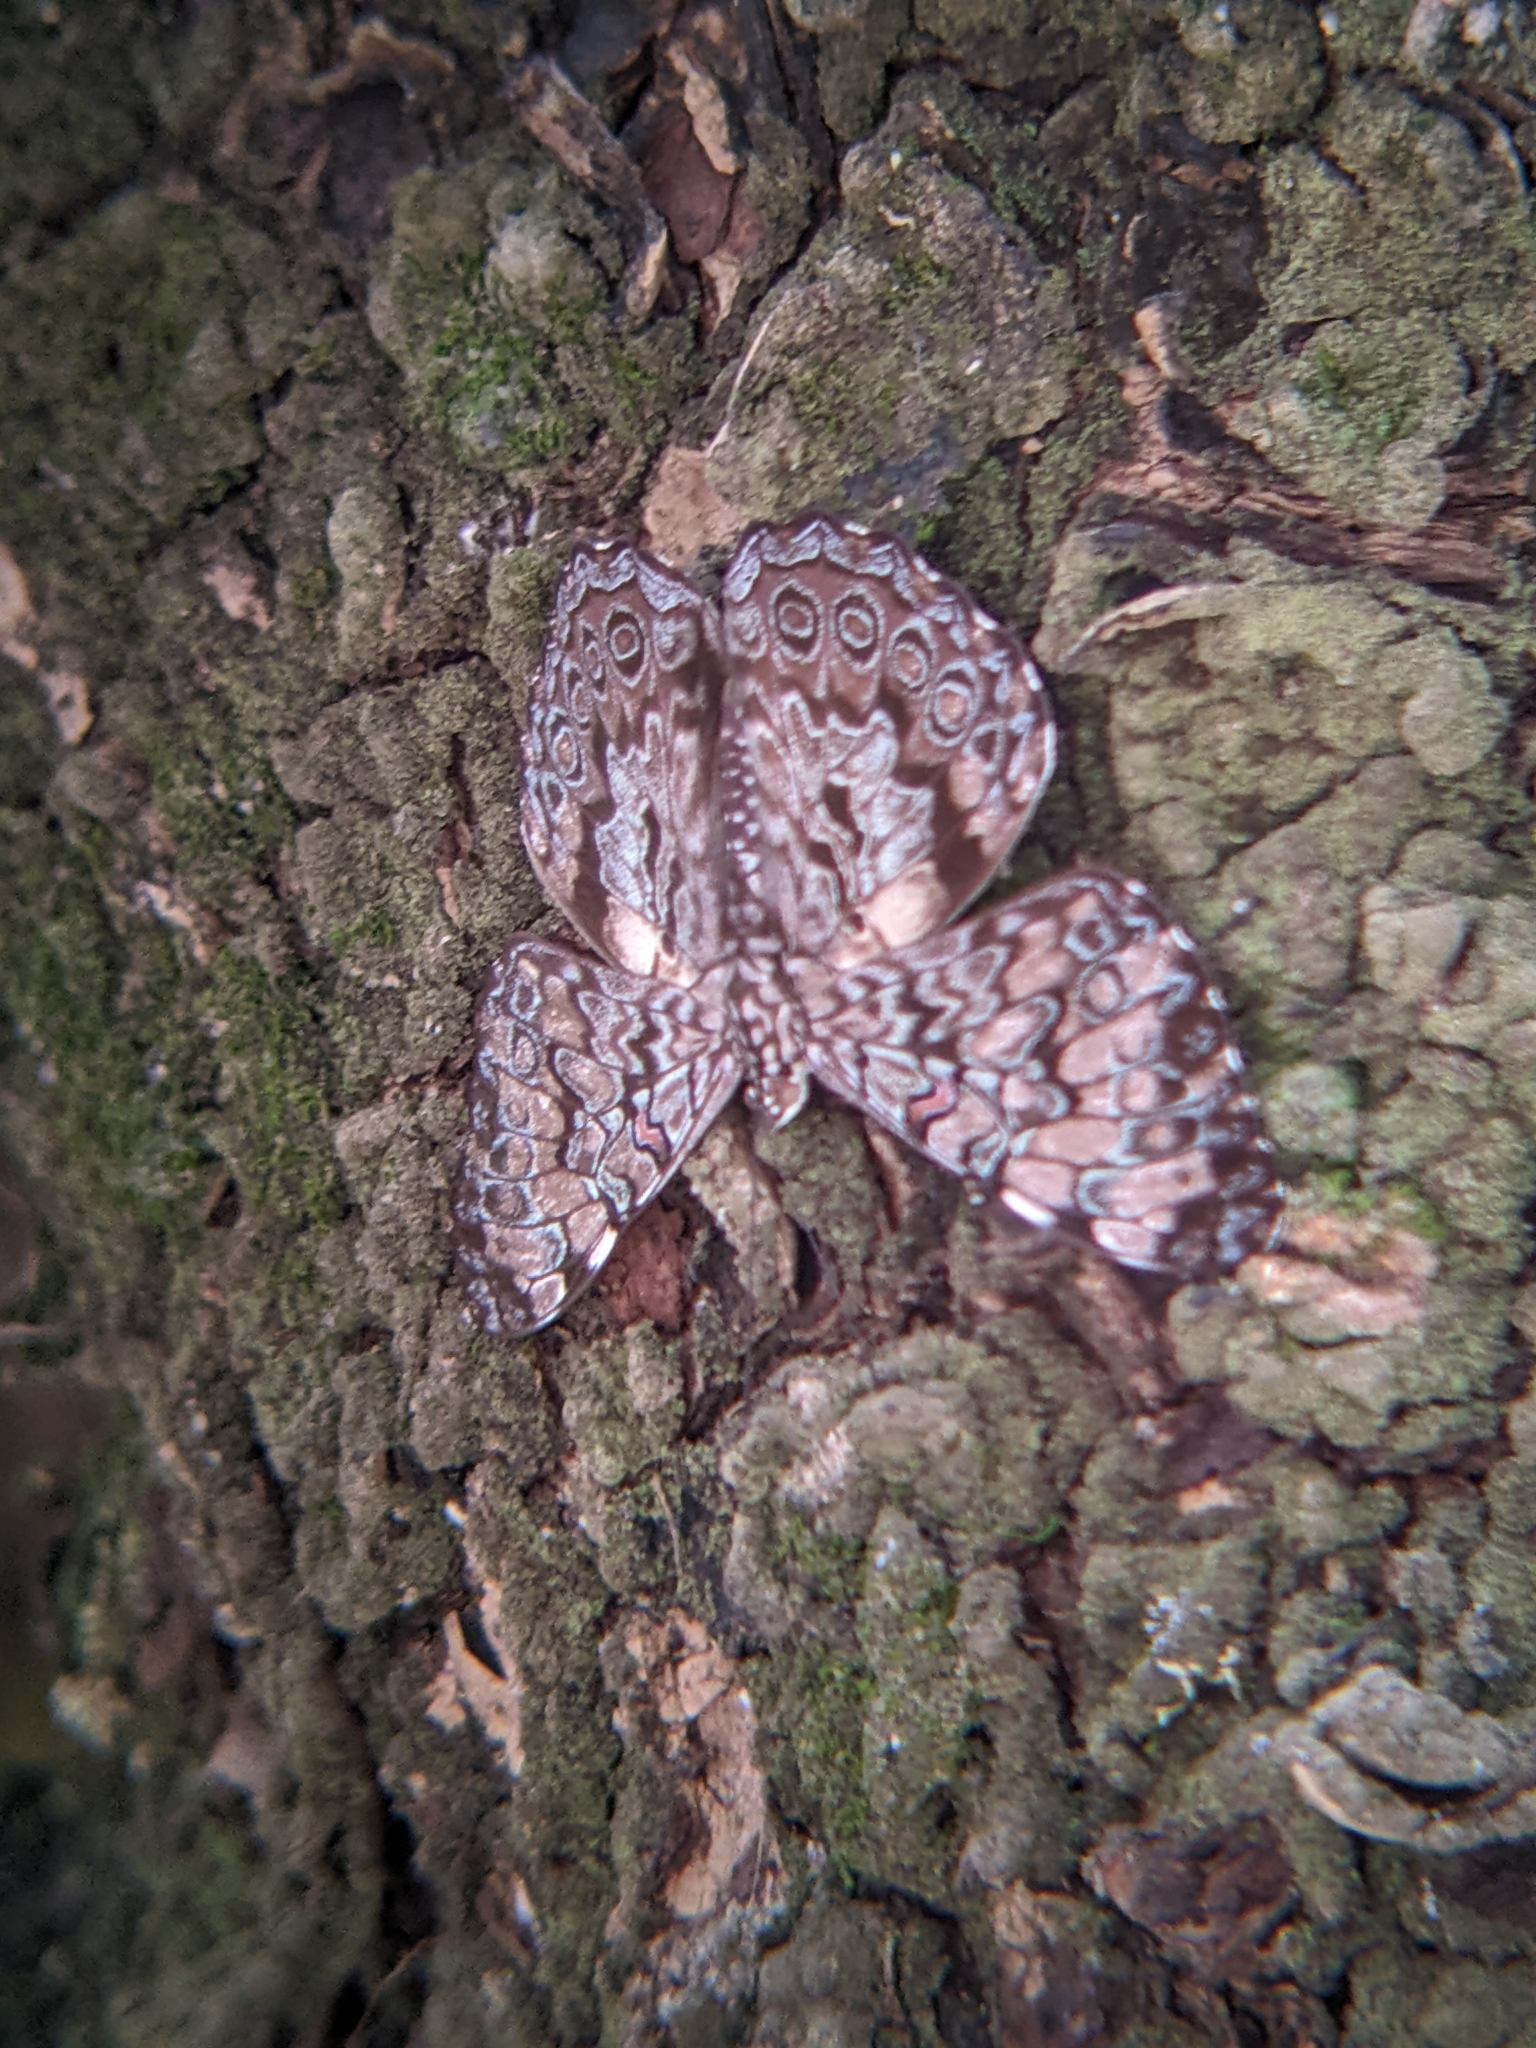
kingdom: Animalia
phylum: Arthropoda
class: Insecta
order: Lepidoptera
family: Nymphalidae
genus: Hamadryas
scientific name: Hamadryas guatemalena
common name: Guatemalan cracker
